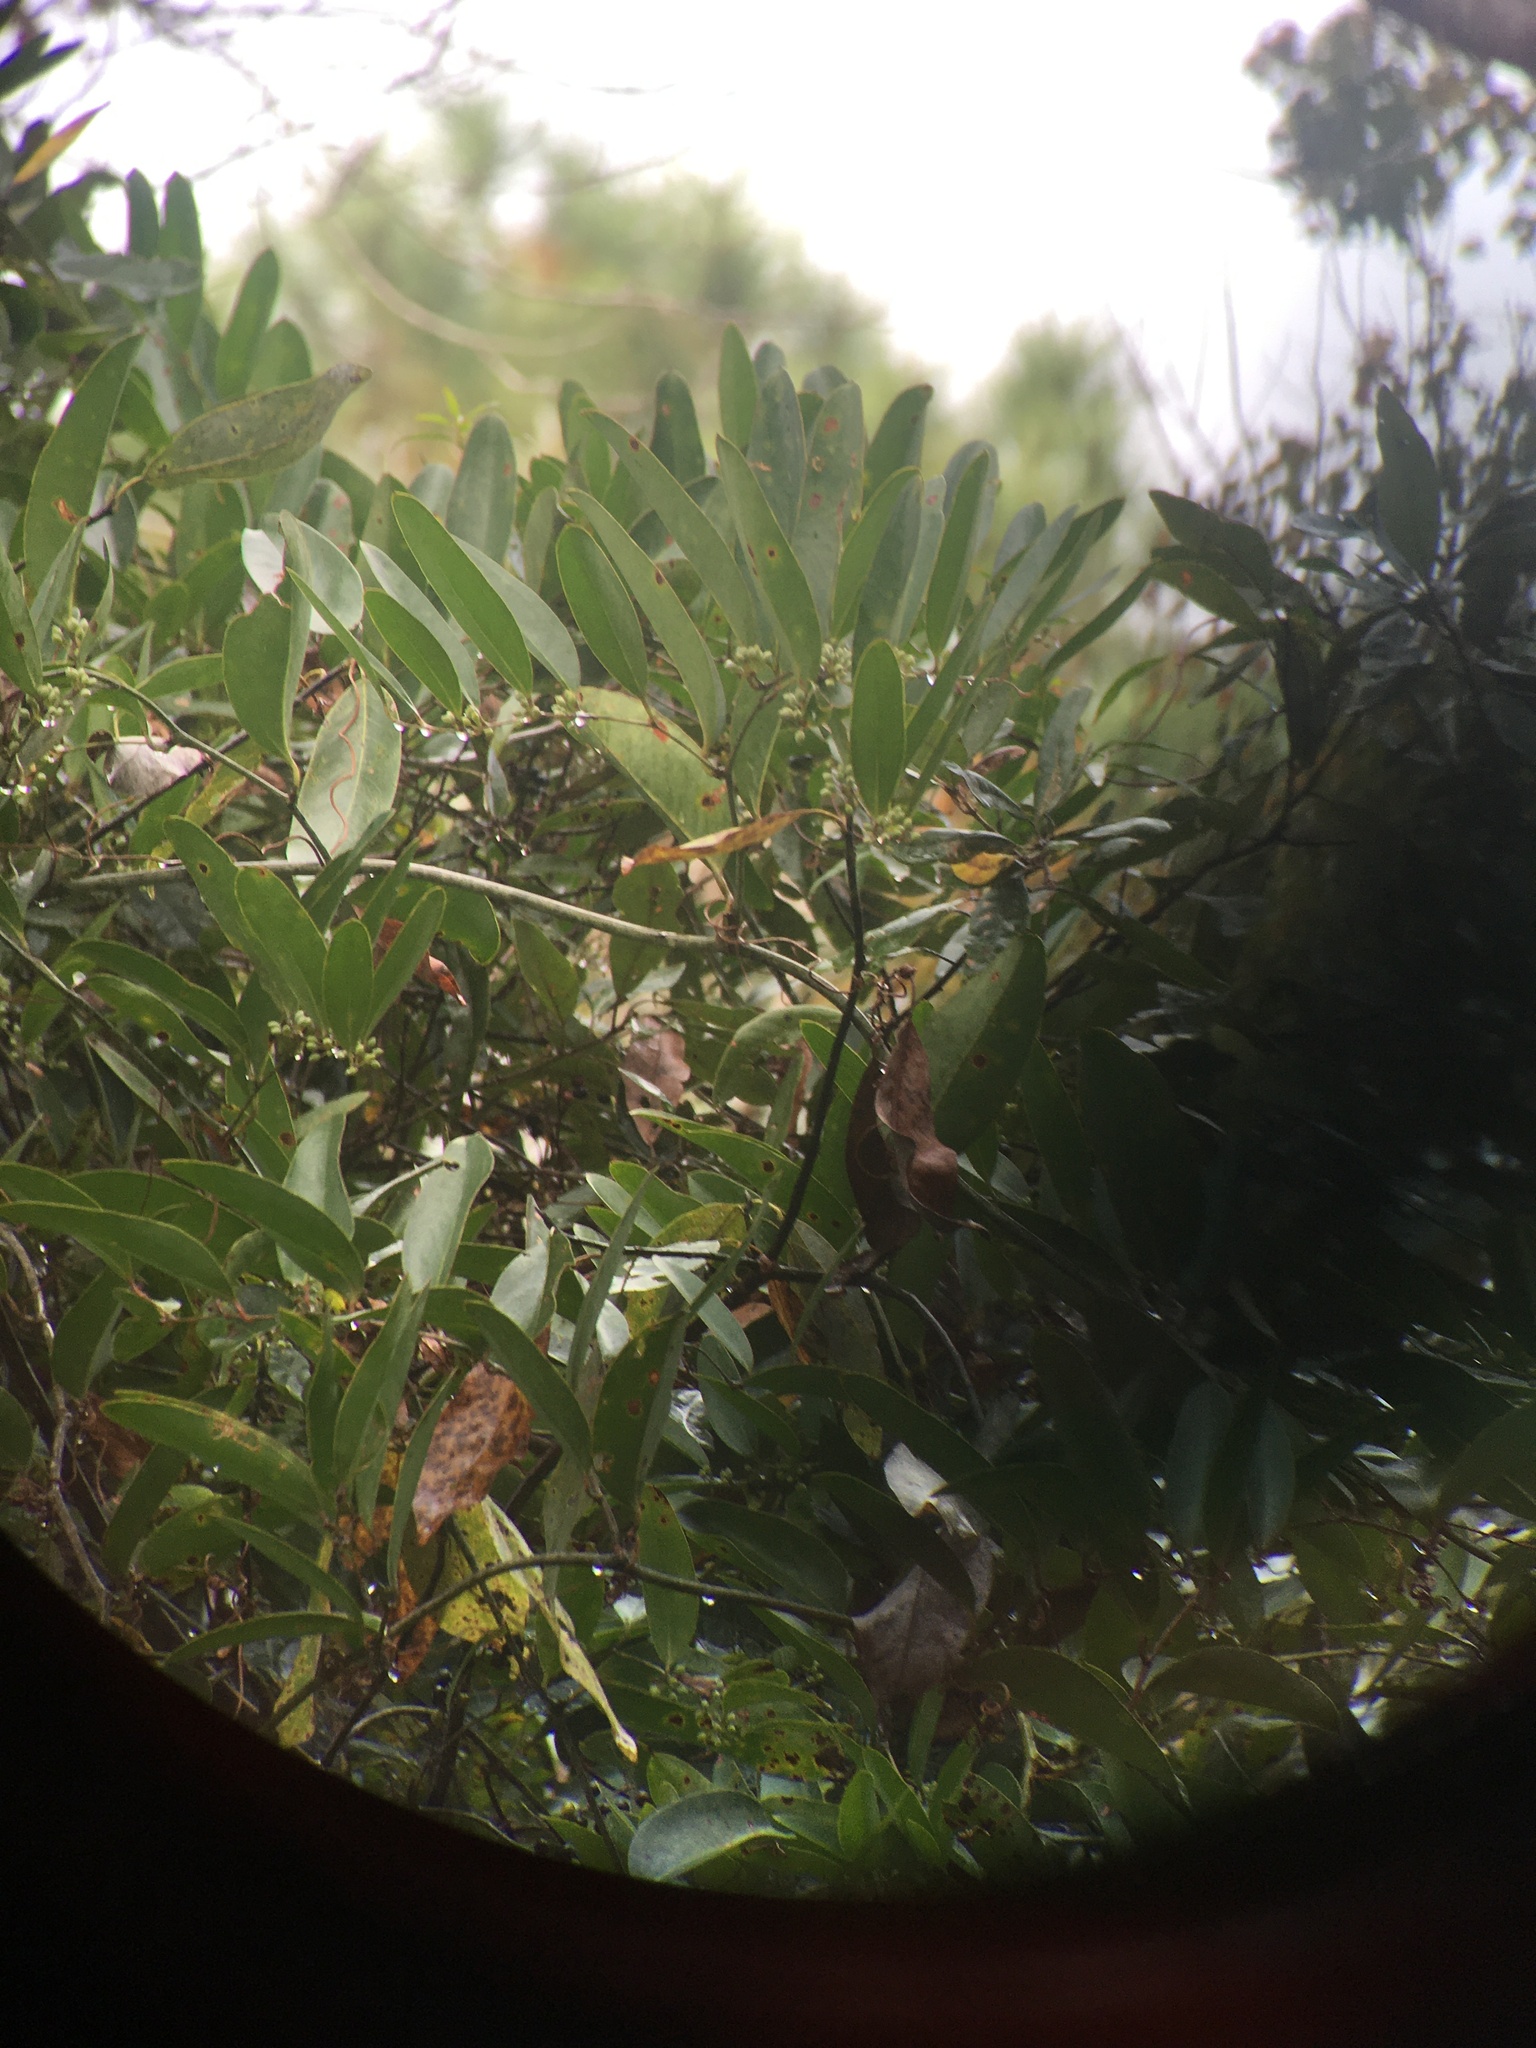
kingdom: Plantae
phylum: Tracheophyta
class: Liliopsida
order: Liliales
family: Smilacaceae
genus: Smilax
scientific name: Smilax laurifolia
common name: Bamboovine
